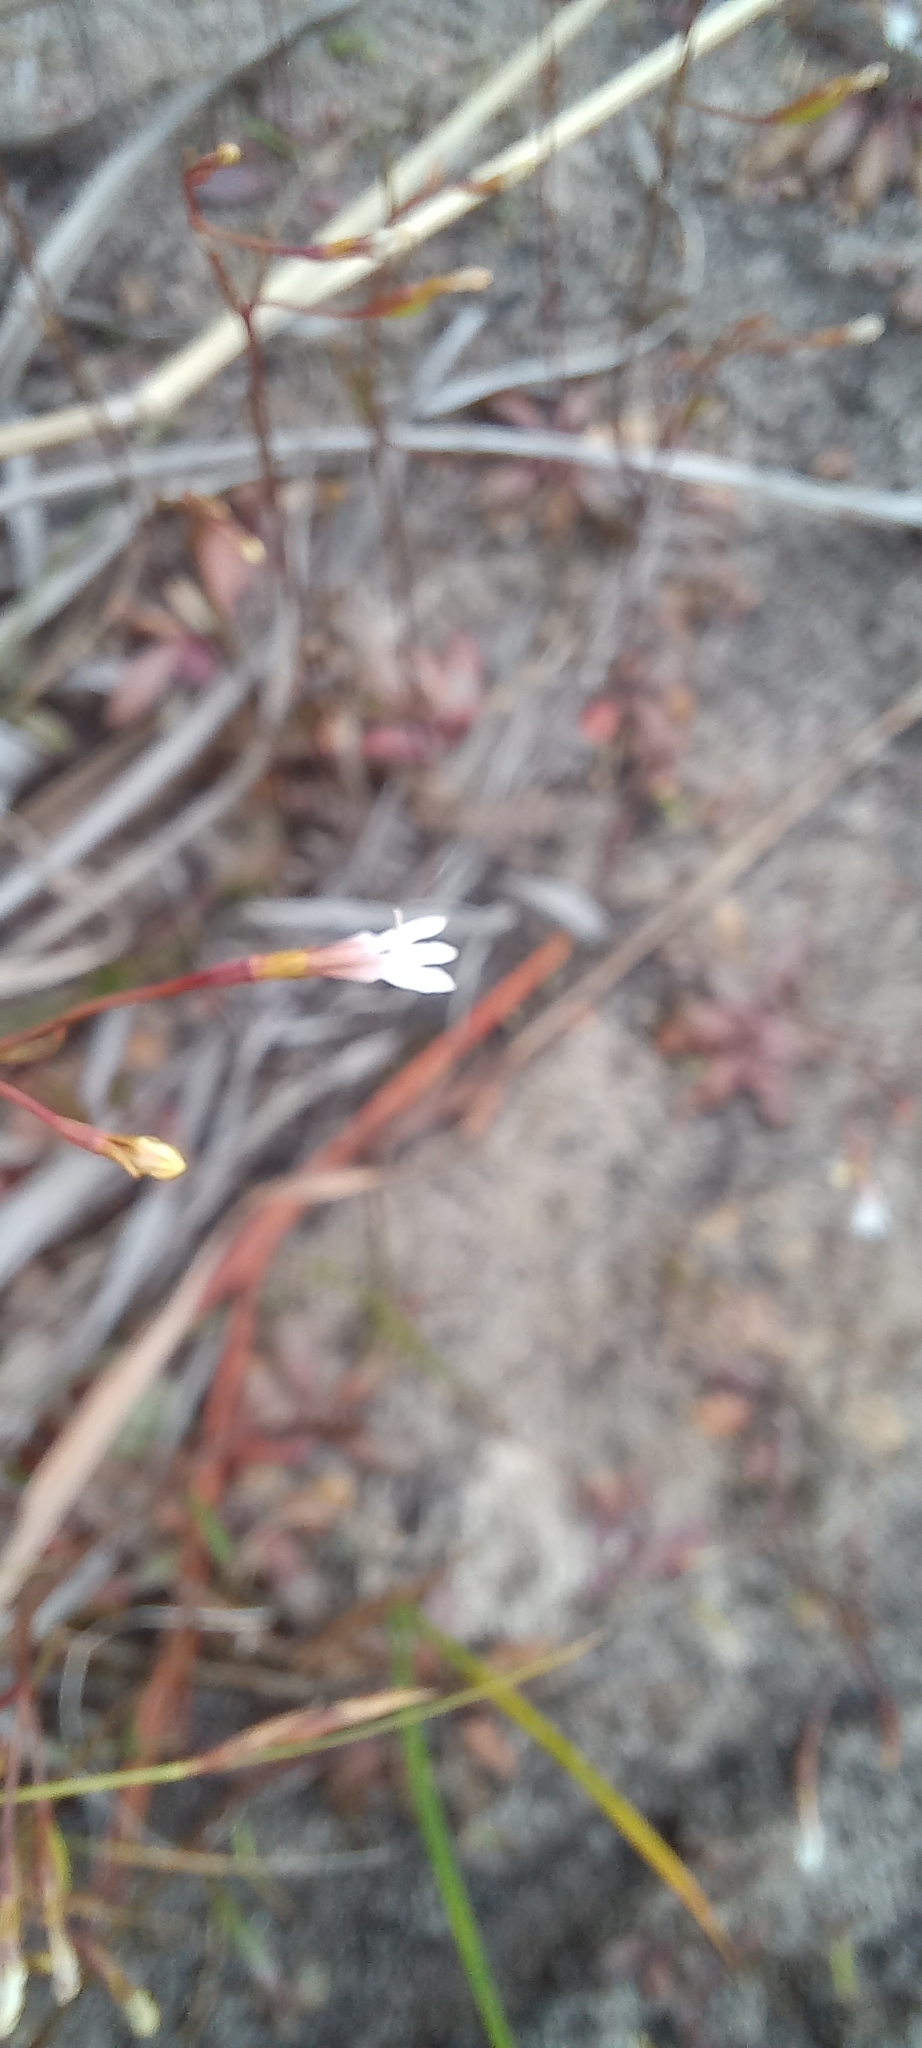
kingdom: Plantae
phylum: Tracheophyta
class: Magnoliopsida
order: Asterales
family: Campanulaceae
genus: Wimmerella
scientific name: Wimmerella arabidea
